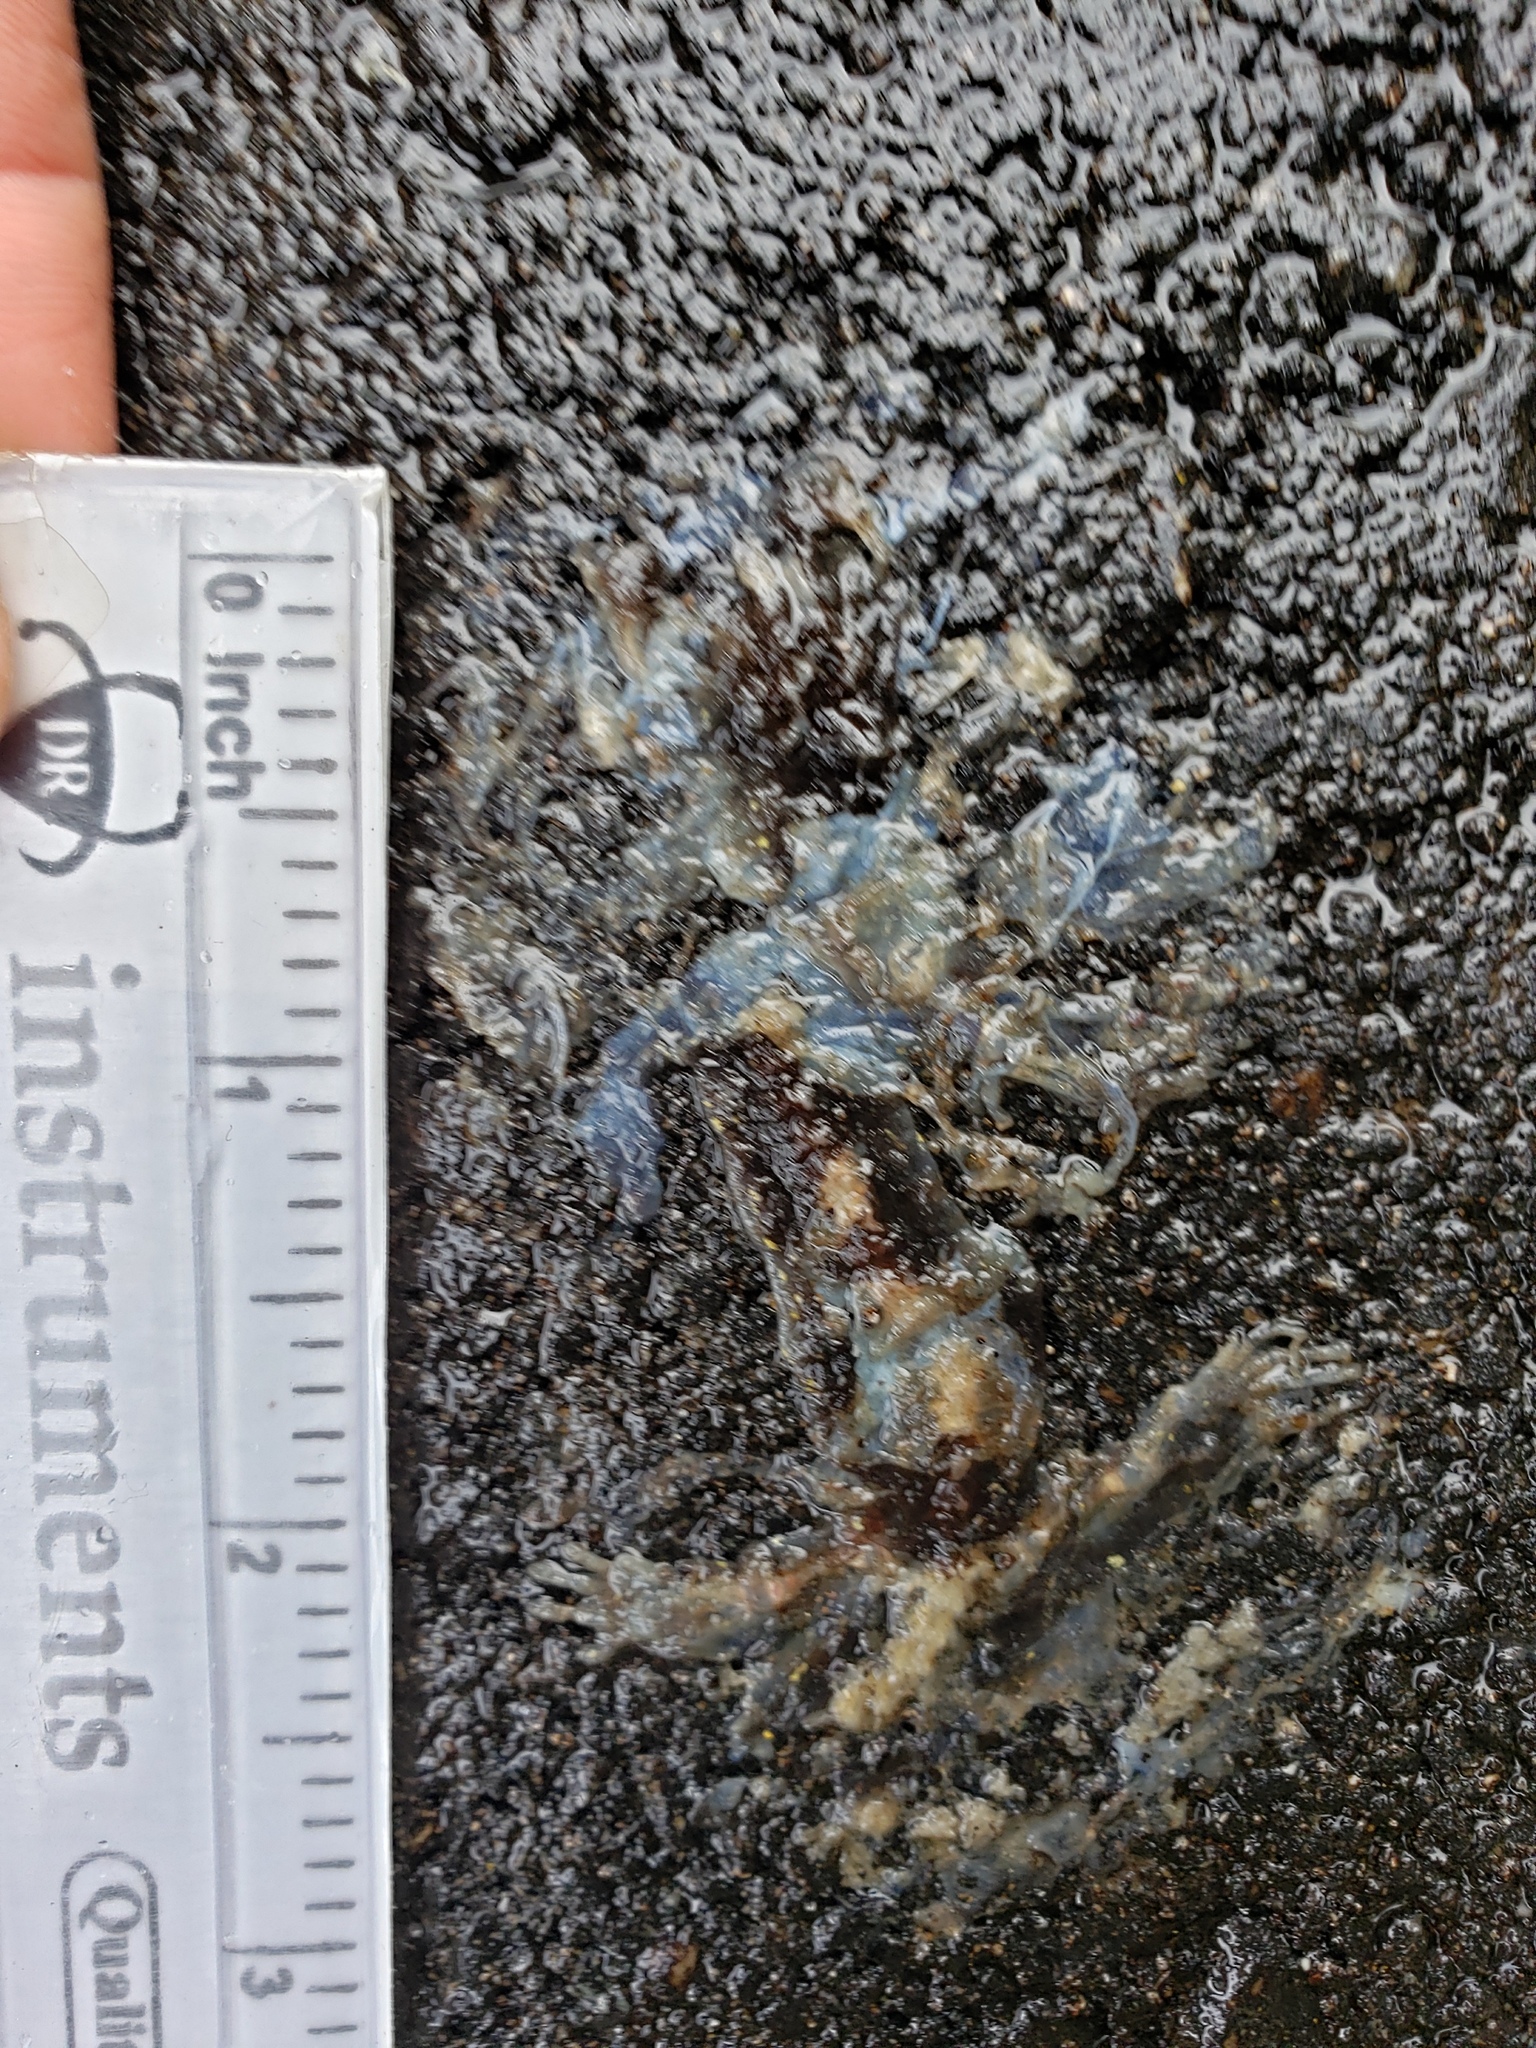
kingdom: Animalia
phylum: Chordata
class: Amphibia
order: Caudata
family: Salamandridae
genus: Taricha
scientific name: Taricha
